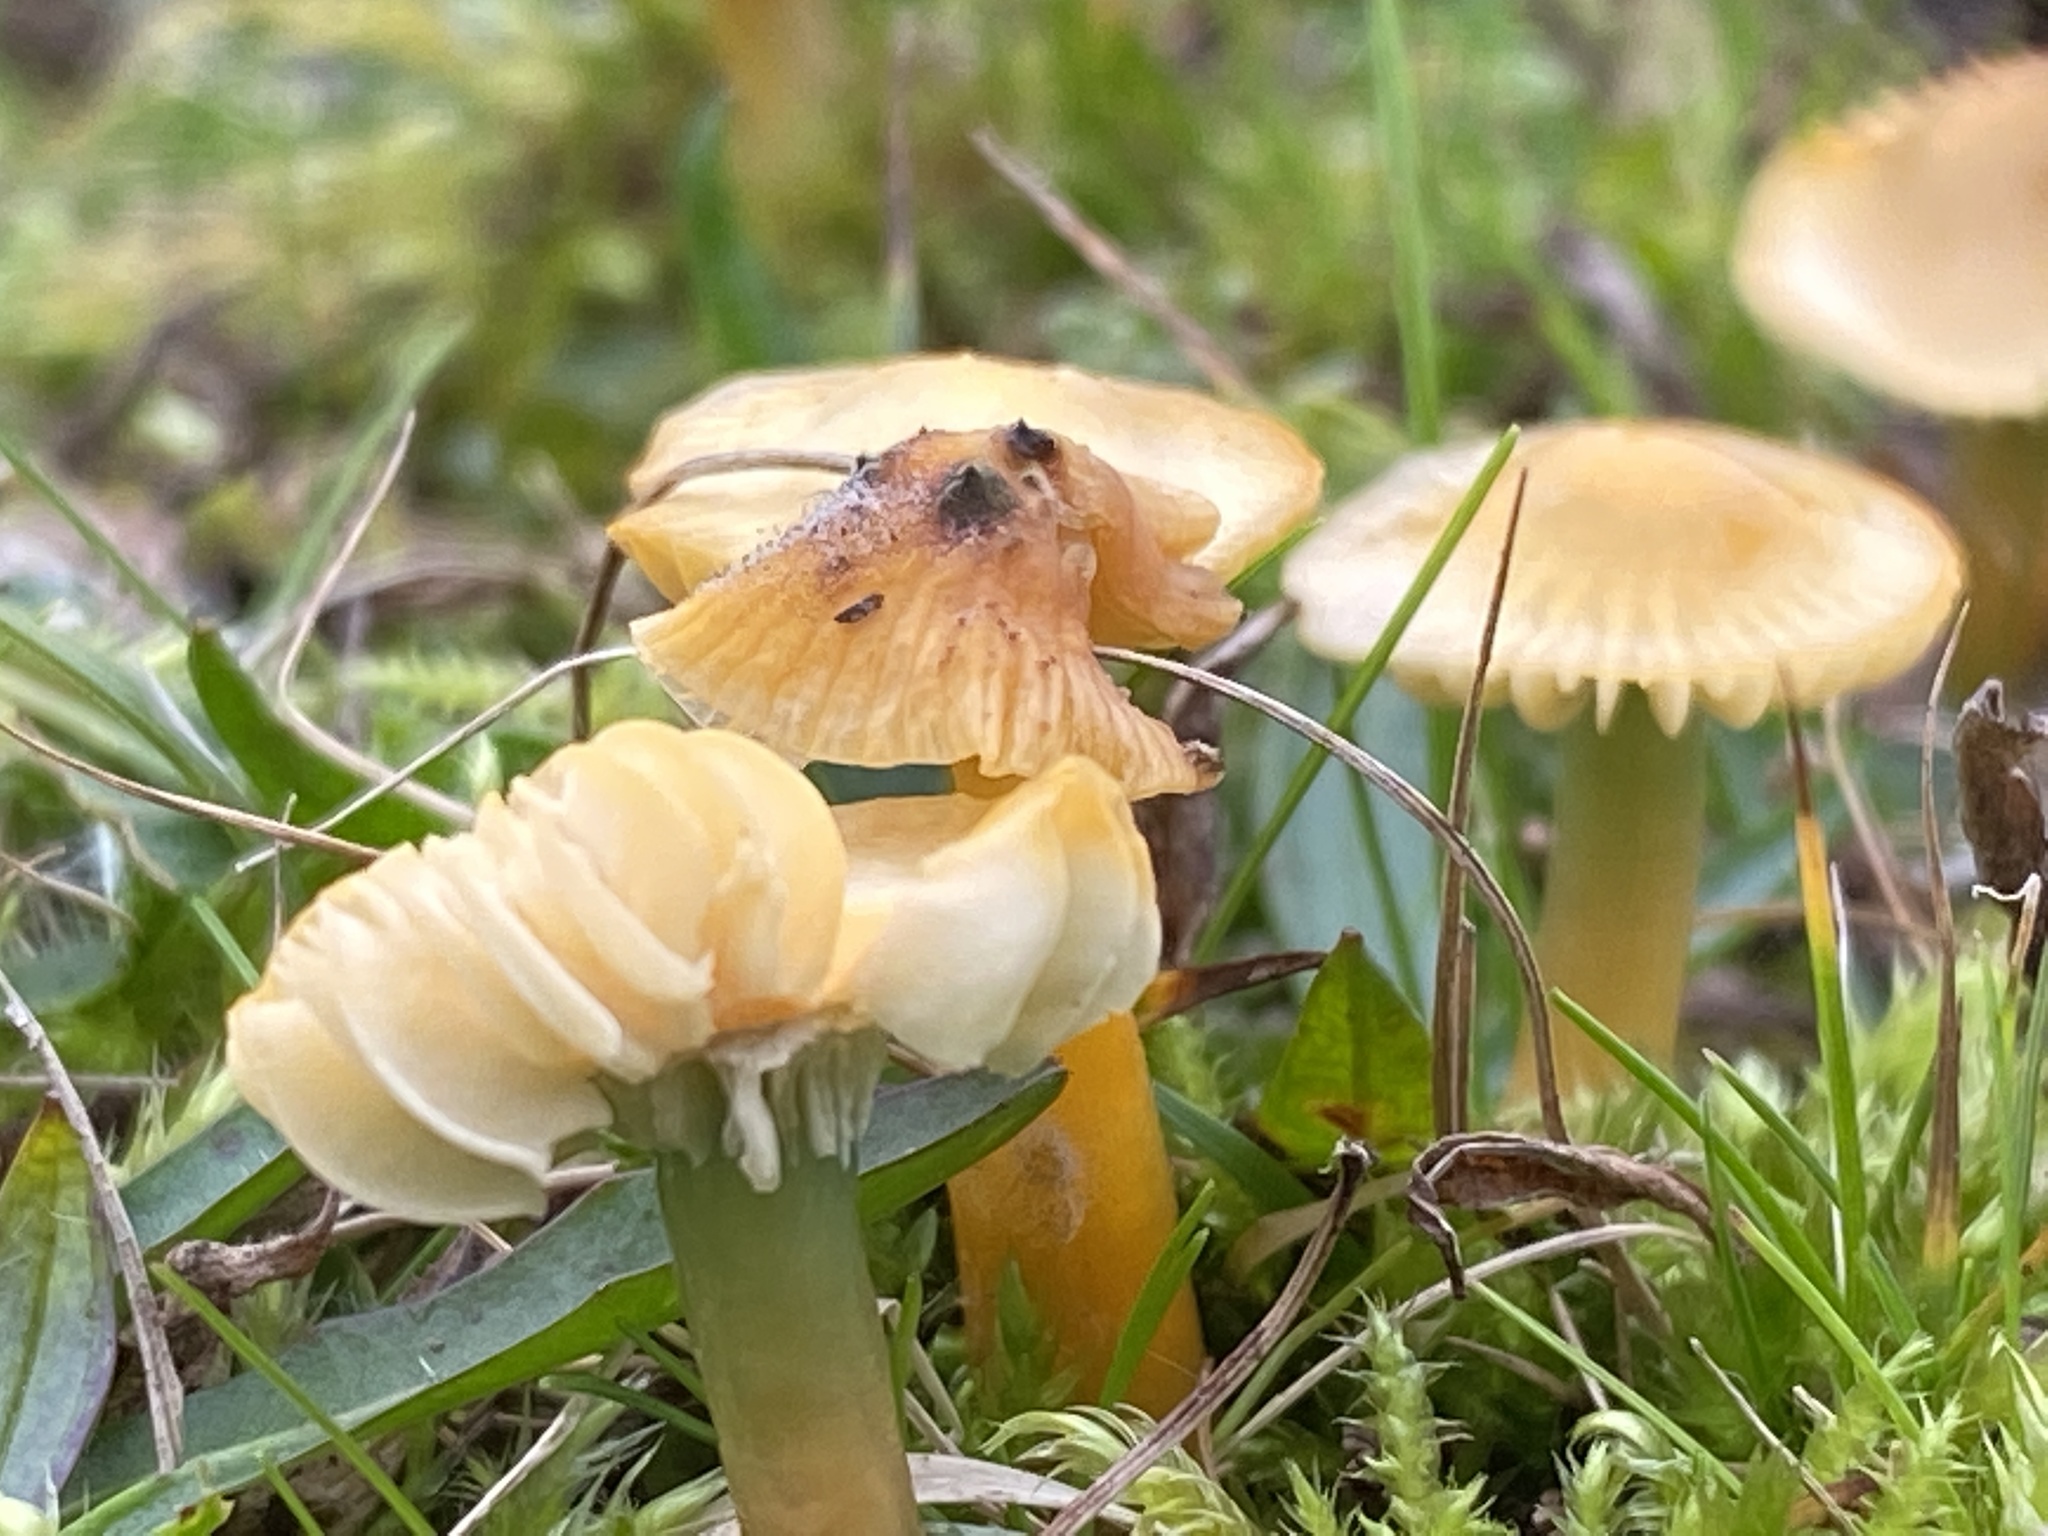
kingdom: Fungi
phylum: Basidiomycota
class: Agaricomycetes
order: Agaricales
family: Hygrophoraceae
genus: Gliophorus
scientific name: Gliophorus psittacinus
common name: Parrot wax-cap
